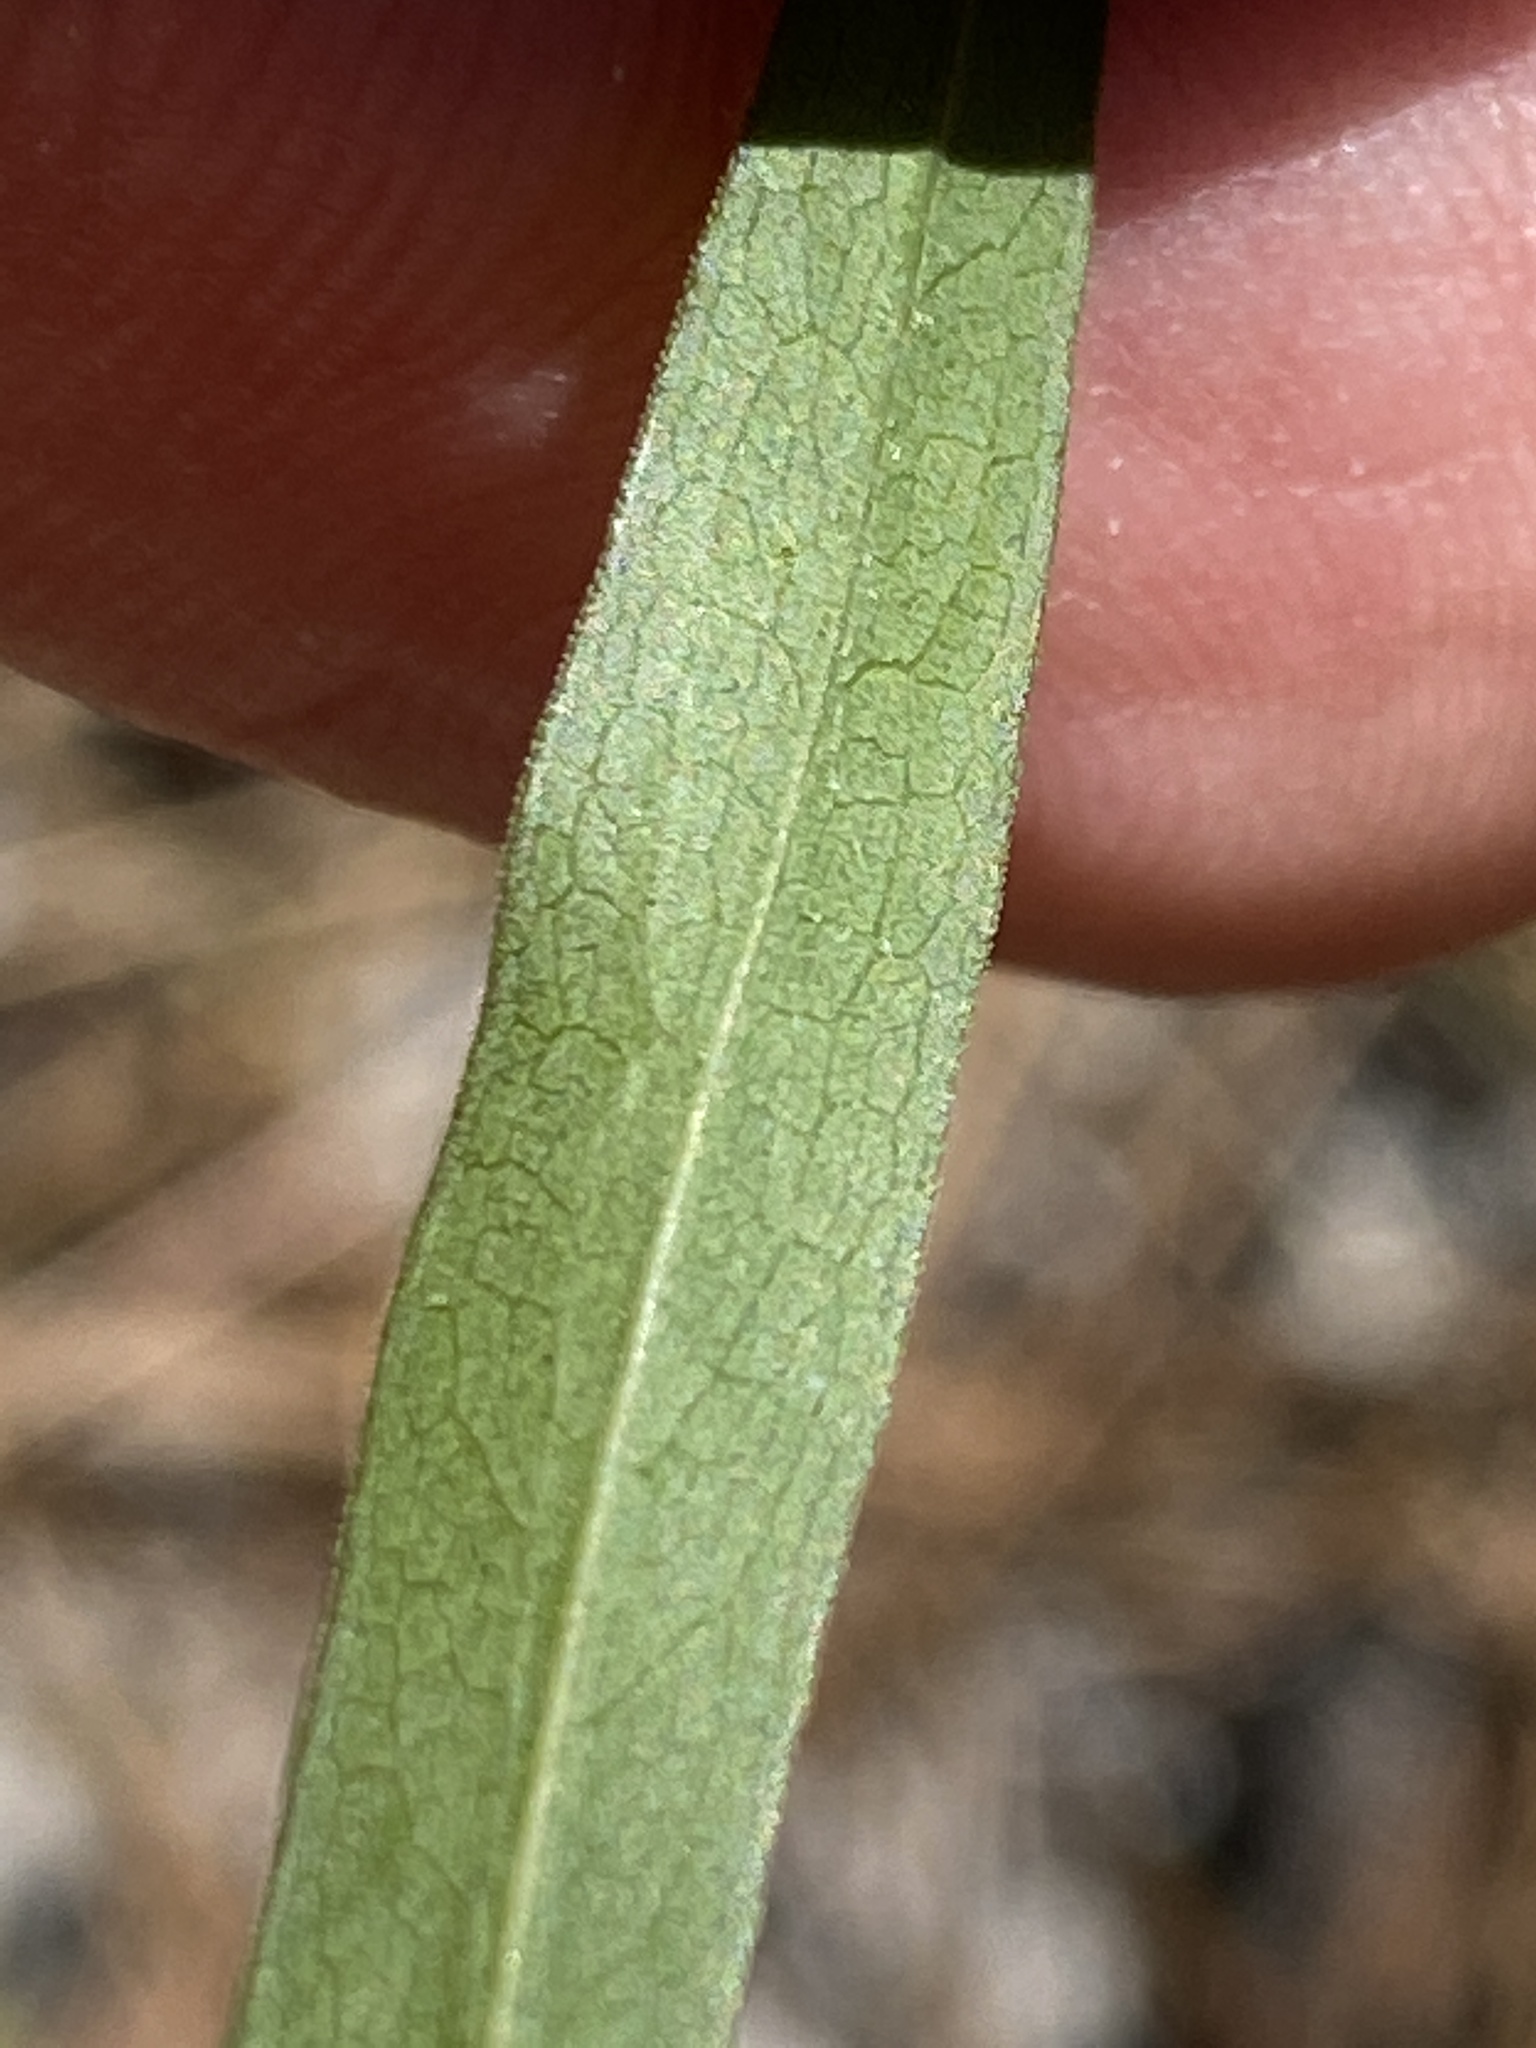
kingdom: Plantae
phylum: Tracheophyta
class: Magnoliopsida
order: Asterales
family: Asteraceae
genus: Solidago
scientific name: Solidago odora
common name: Anise-scented goldenrod
